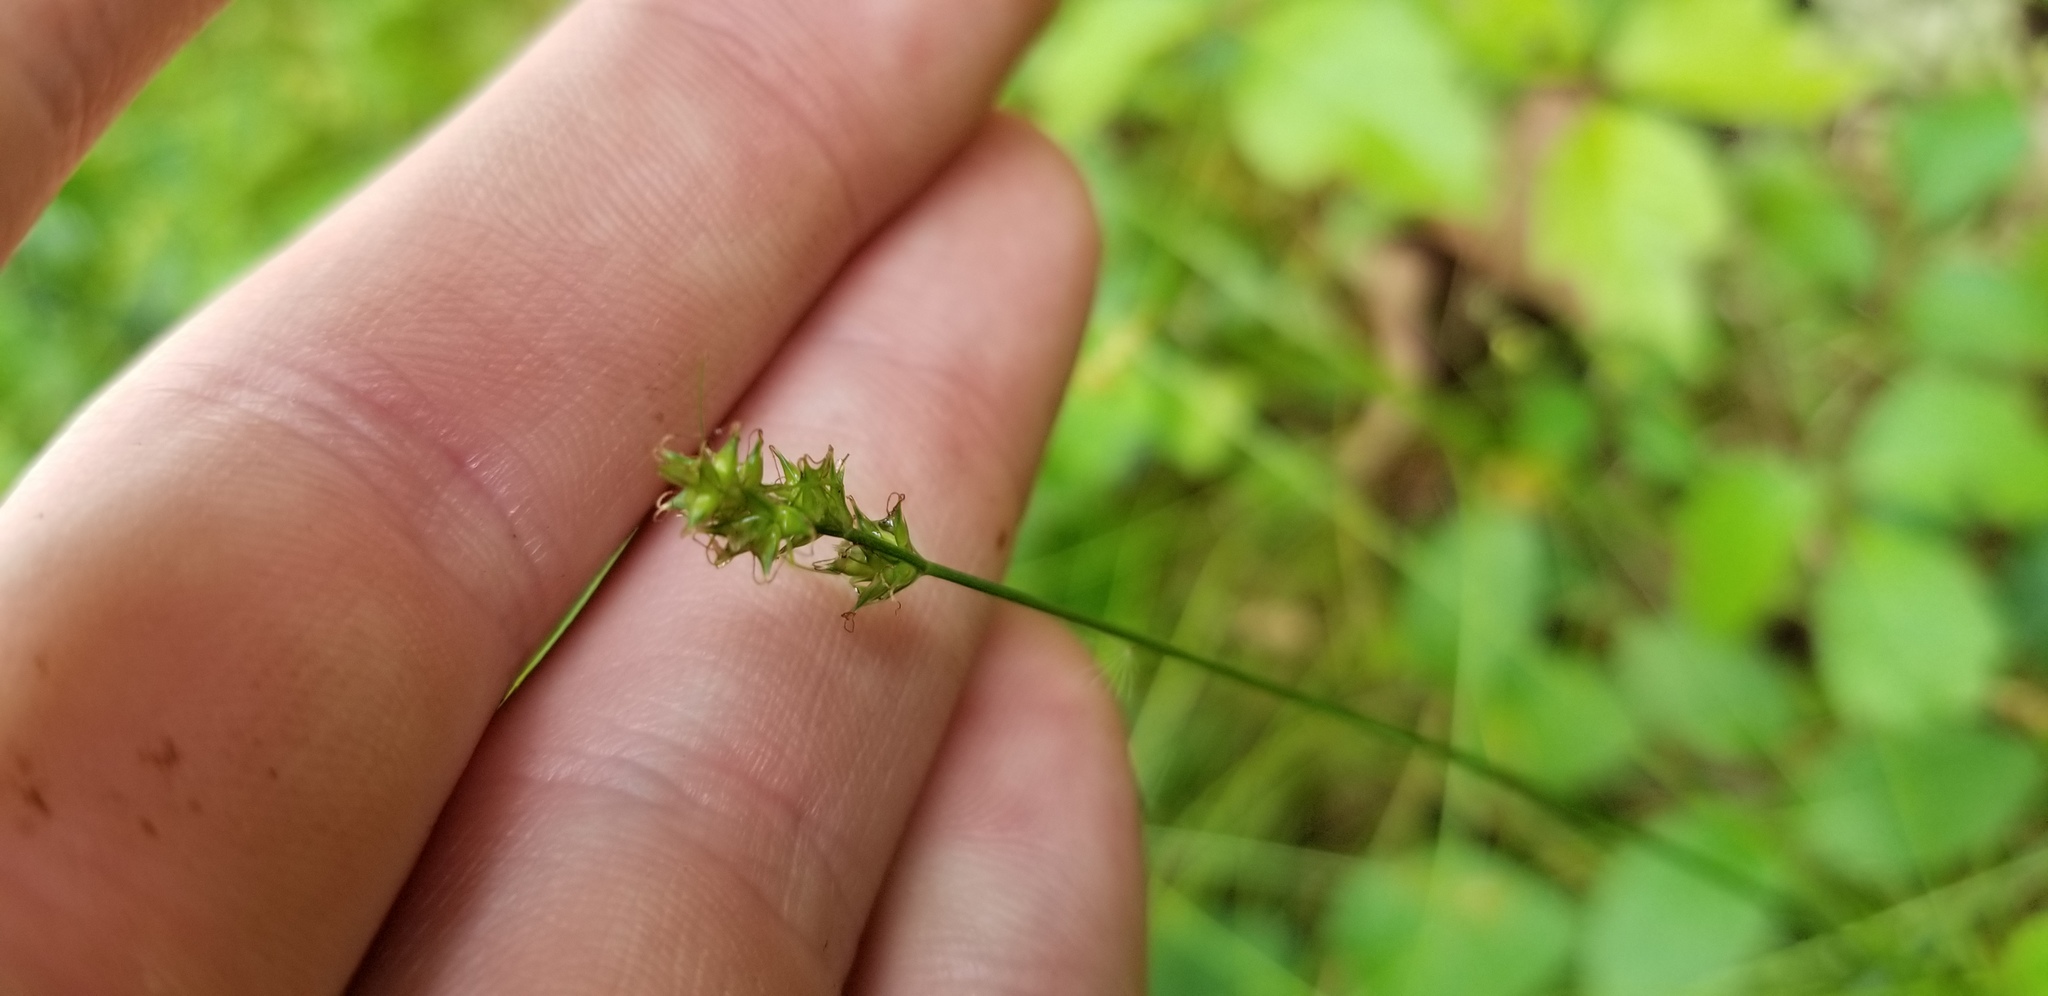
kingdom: Plantae
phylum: Tracheophyta
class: Liliopsida
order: Poales
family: Cyperaceae
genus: Carex
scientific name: Carex texensis
